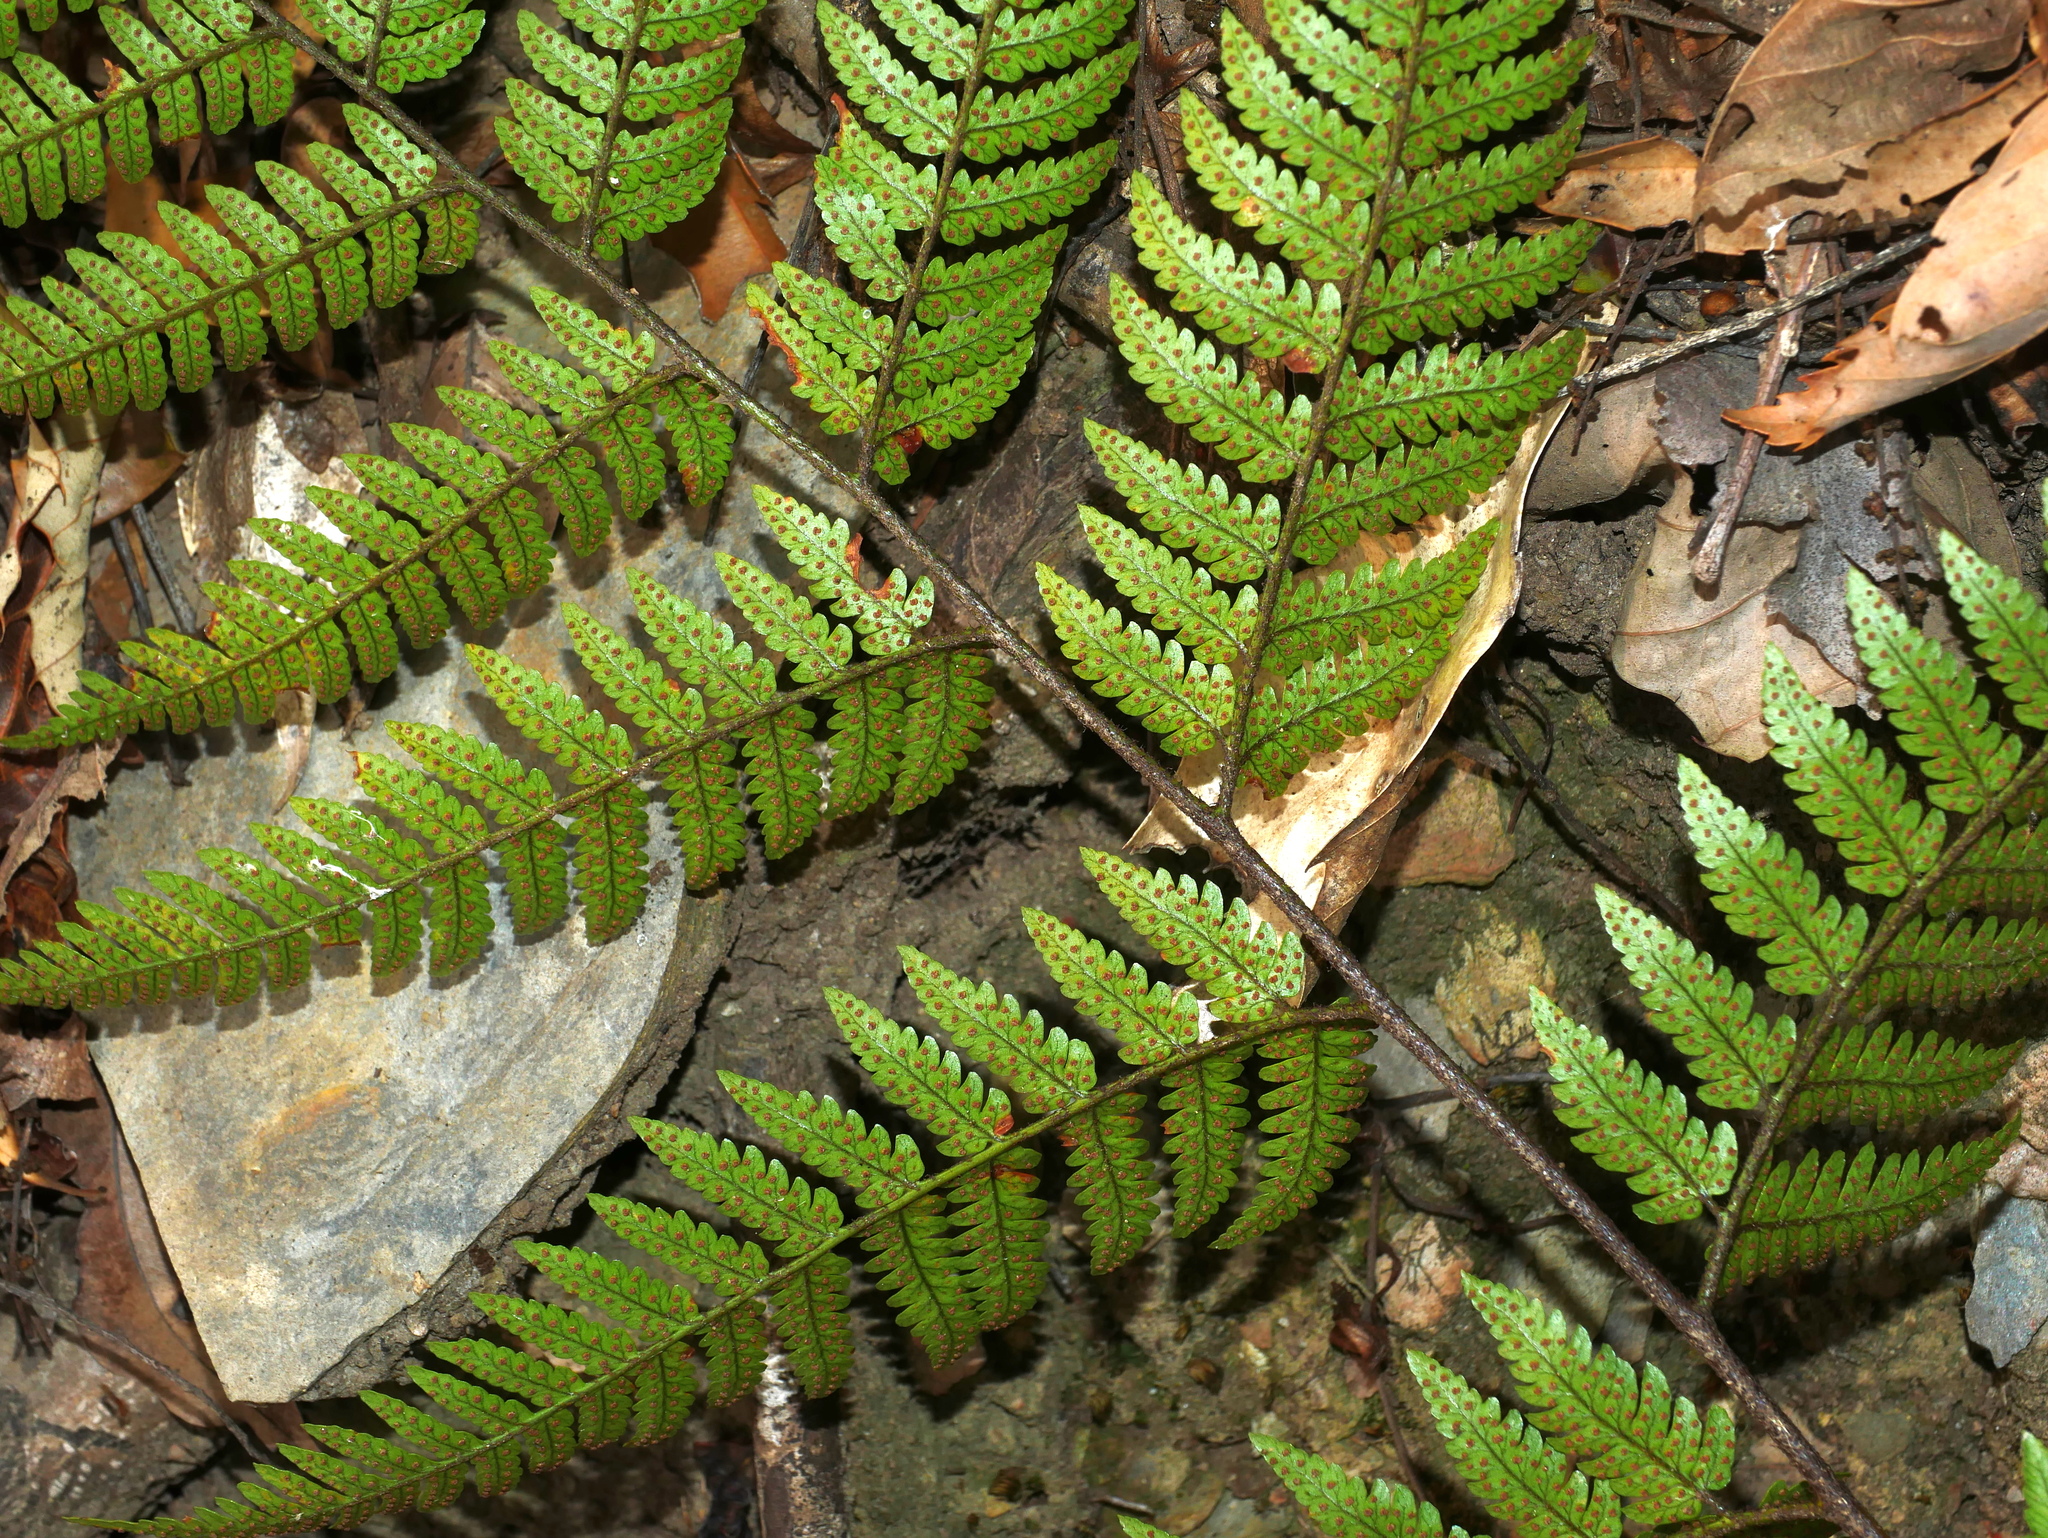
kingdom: Plantae
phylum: Tracheophyta
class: Polypodiopsida
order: Polypodiales
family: Dryopteridaceae
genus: Dryopteris
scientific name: Dryopteris sordidipes
